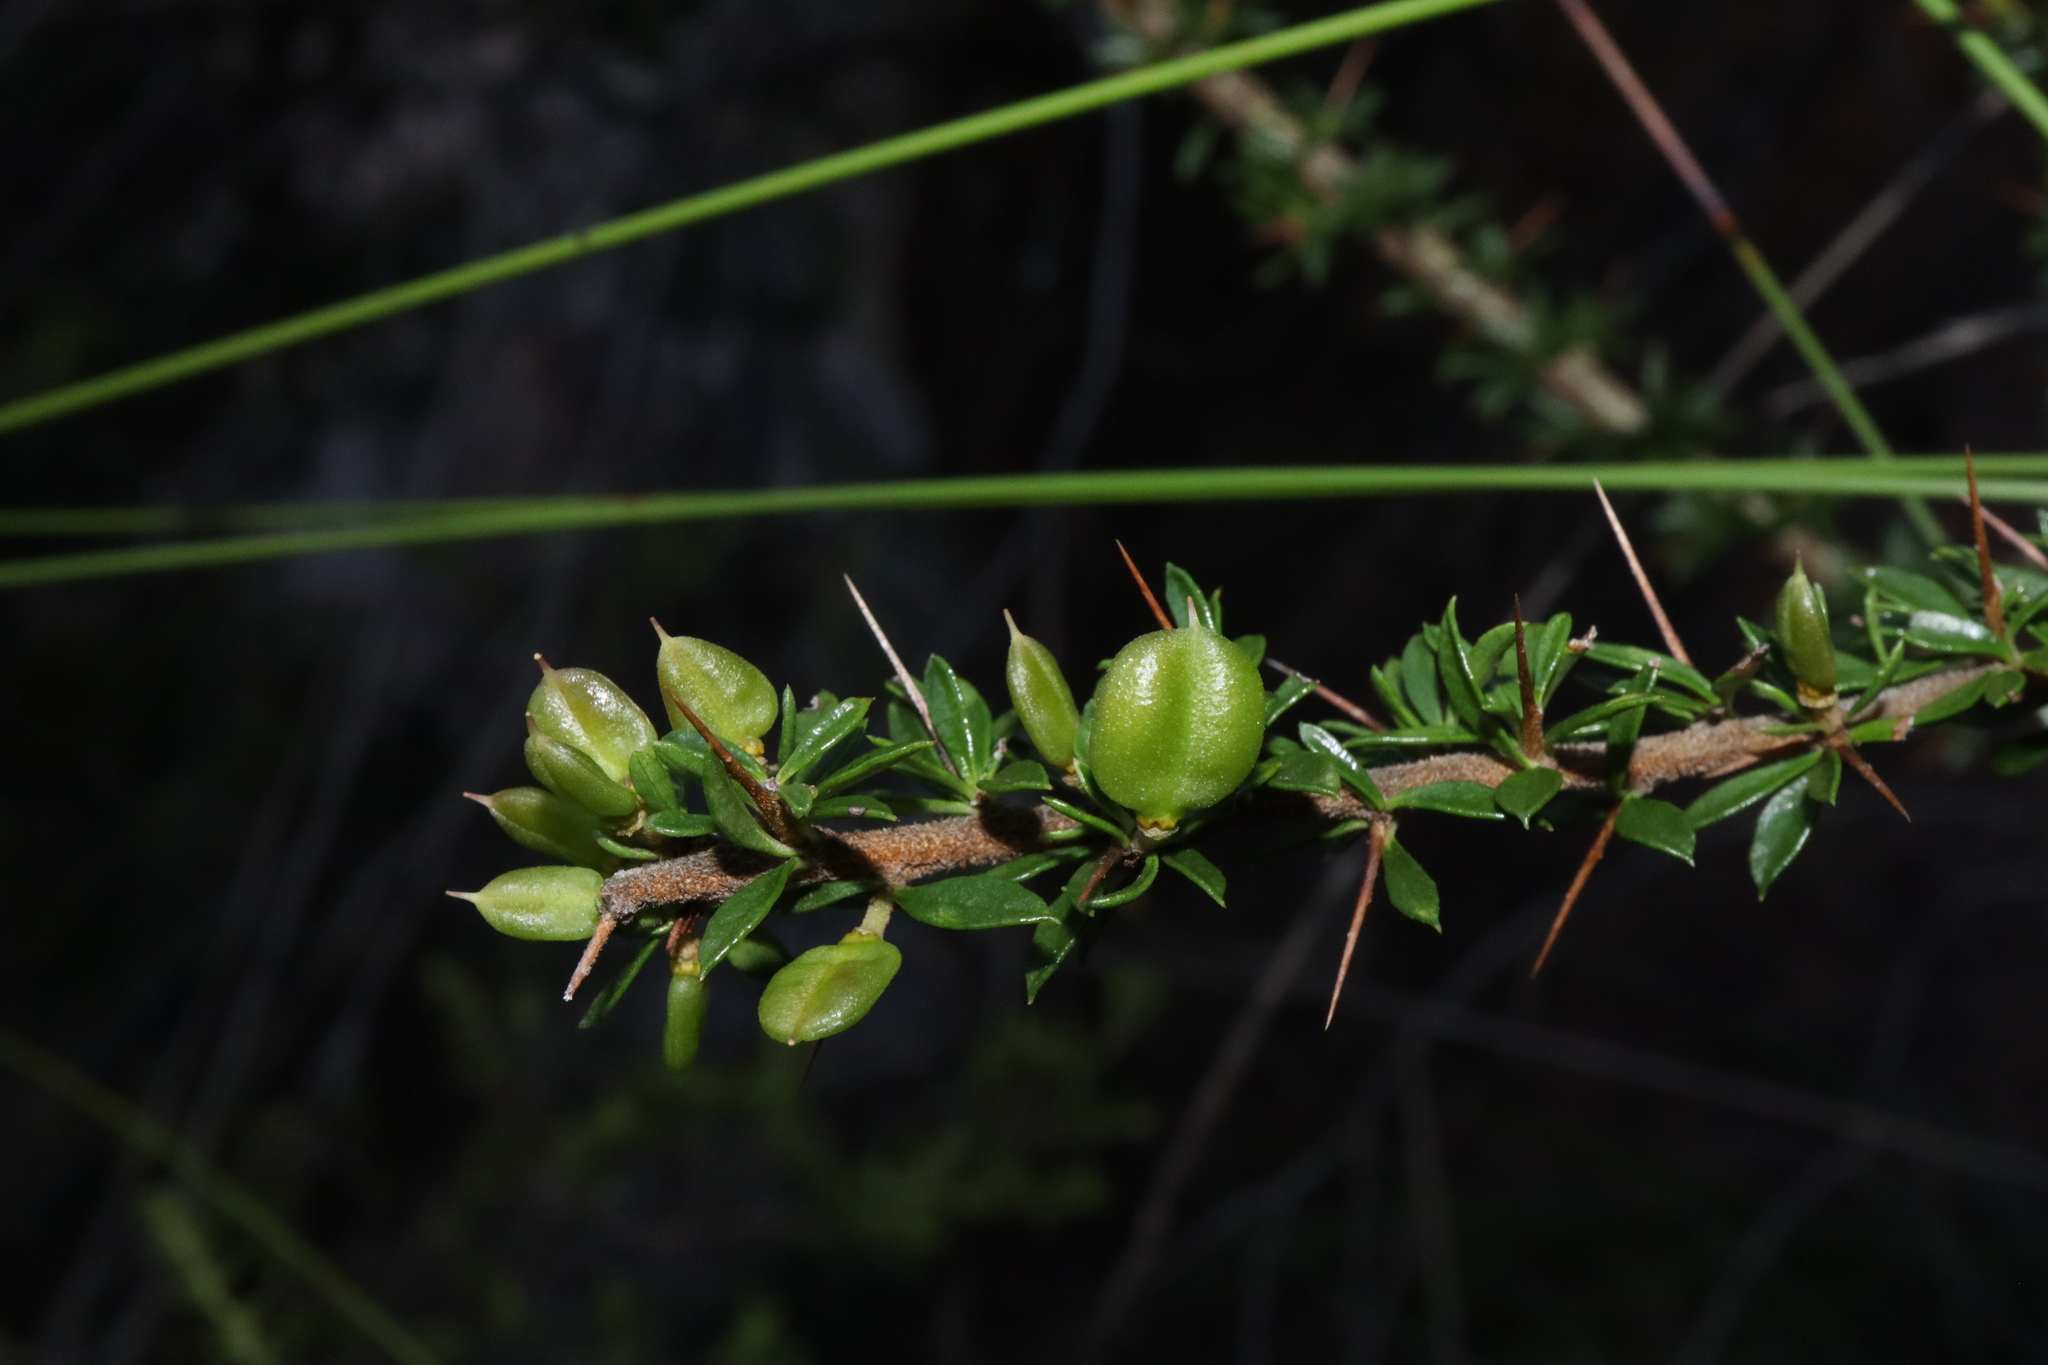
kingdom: Plantae
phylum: Tracheophyta
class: Magnoliopsida
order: Apiales
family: Pittosporaceae
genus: Bursaria
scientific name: Bursaria longisepala
